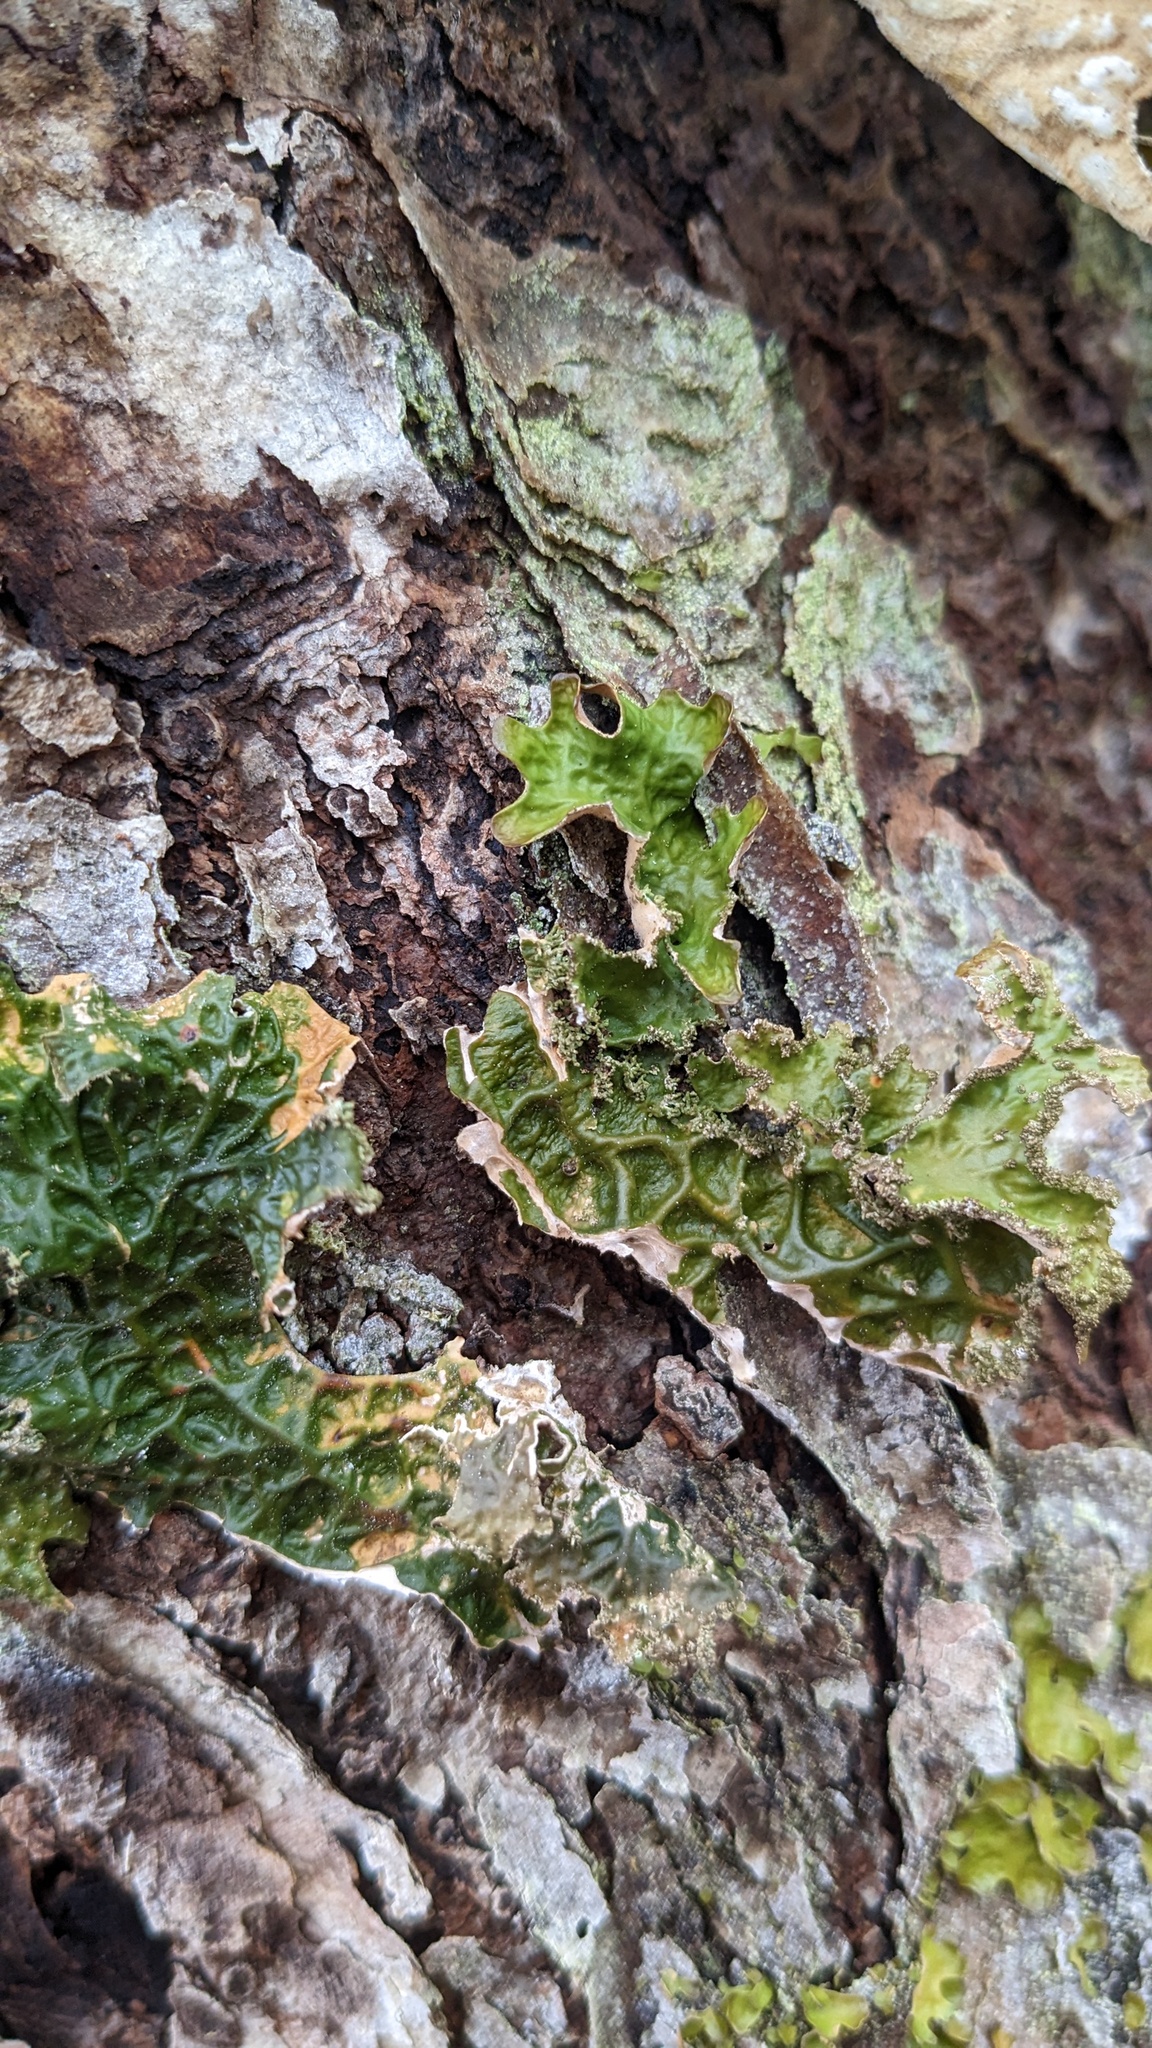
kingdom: Fungi
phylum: Ascomycota
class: Lecanoromycetes
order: Peltigerales
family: Lobariaceae
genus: Lobaria
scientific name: Lobaria pulmonaria
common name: Lungwort
